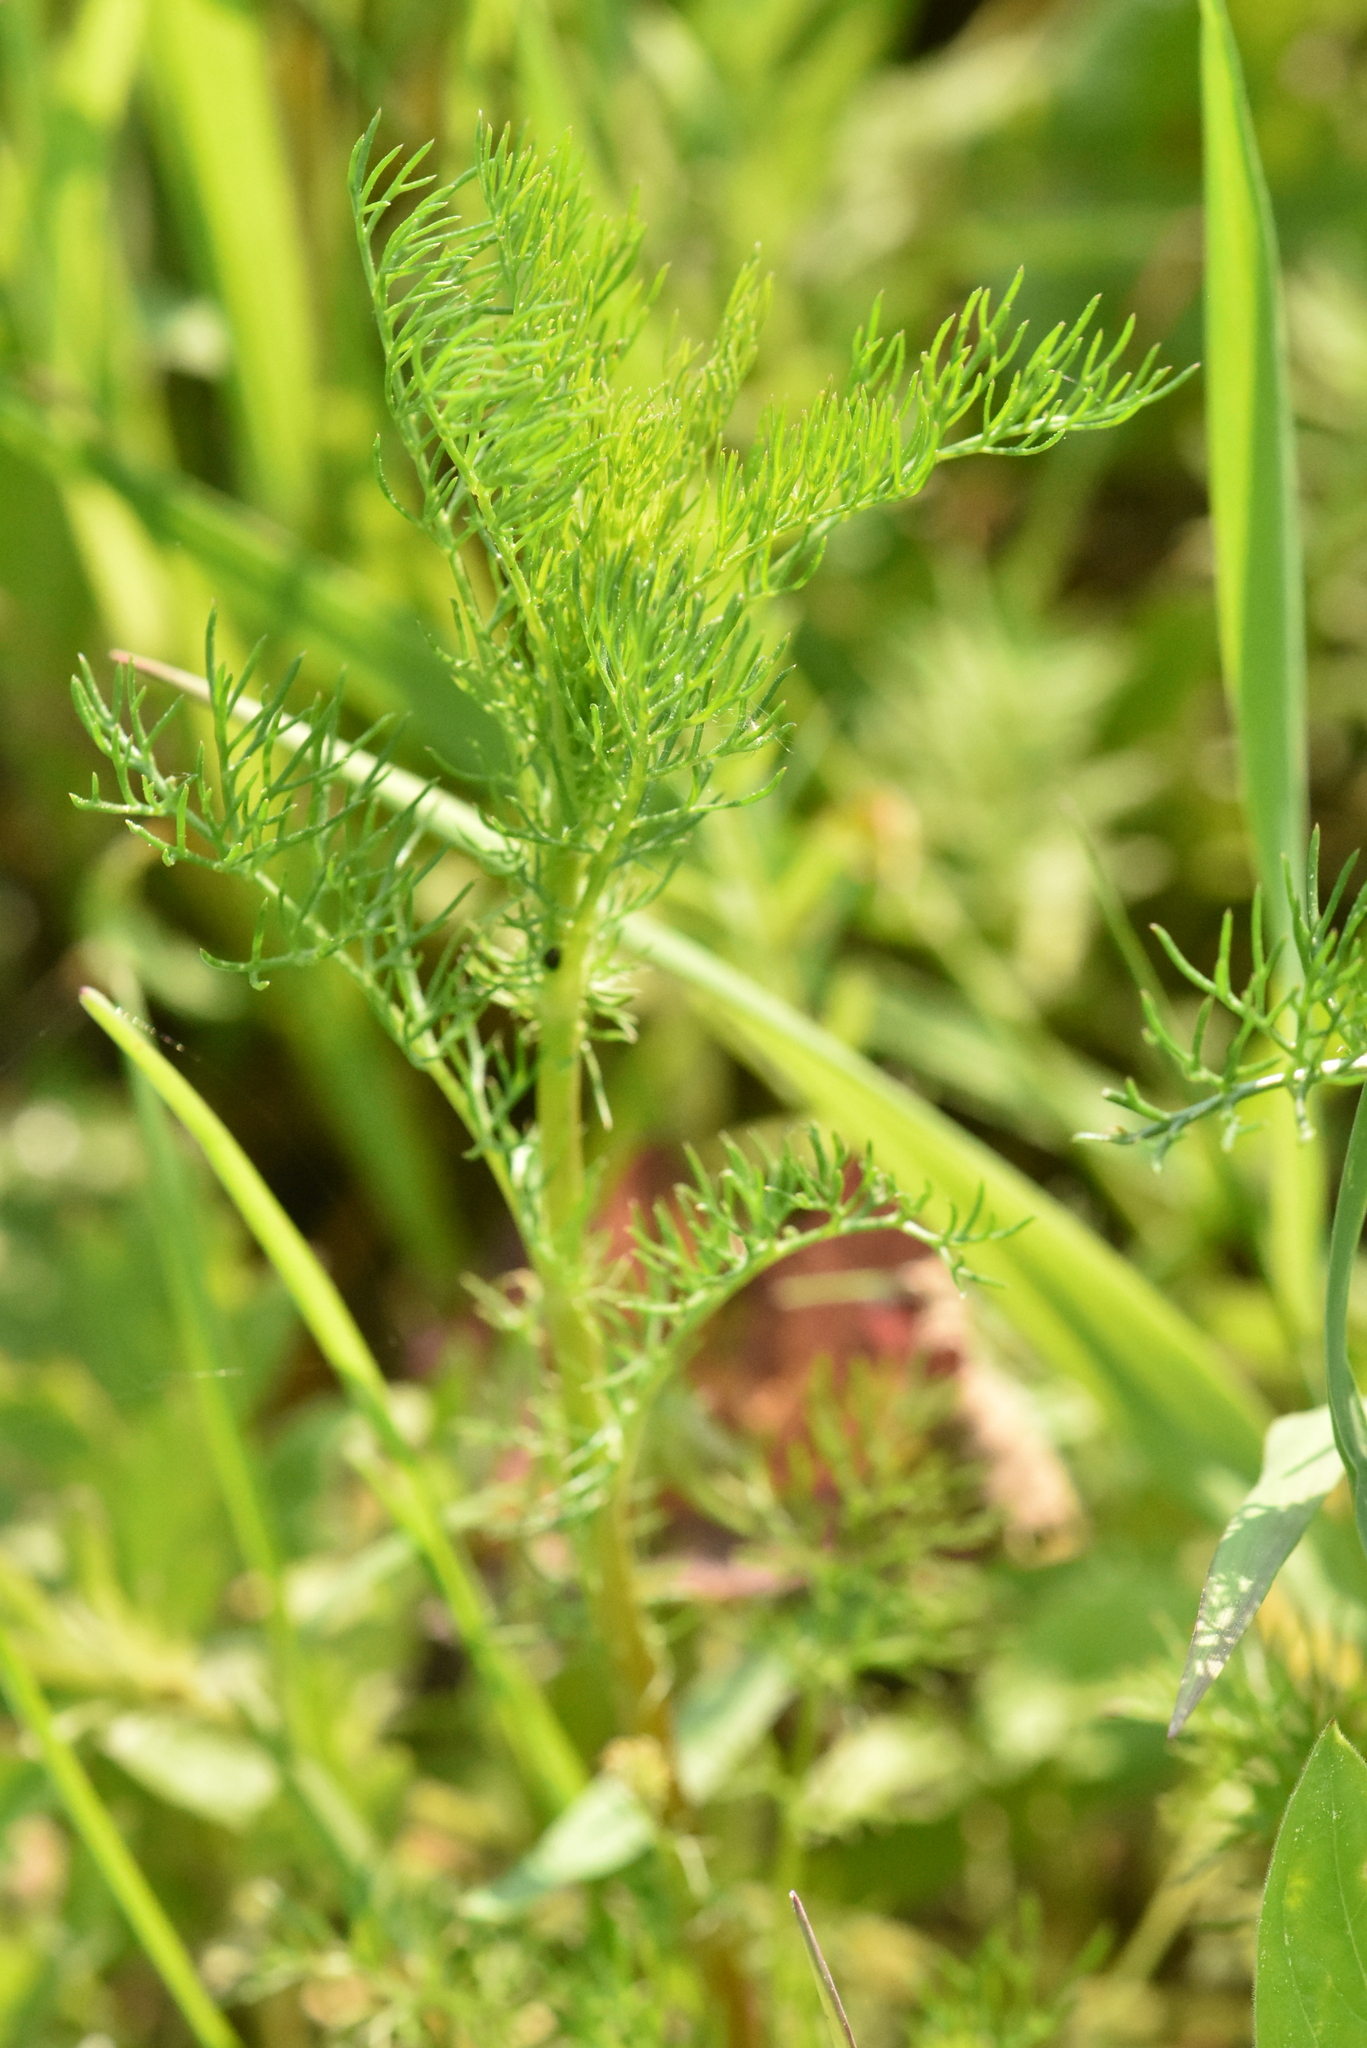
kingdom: Plantae
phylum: Tracheophyta
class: Magnoliopsida
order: Asterales
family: Asteraceae
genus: Tripleurospermum
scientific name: Tripleurospermum inodorum
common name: Scentless mayweed
